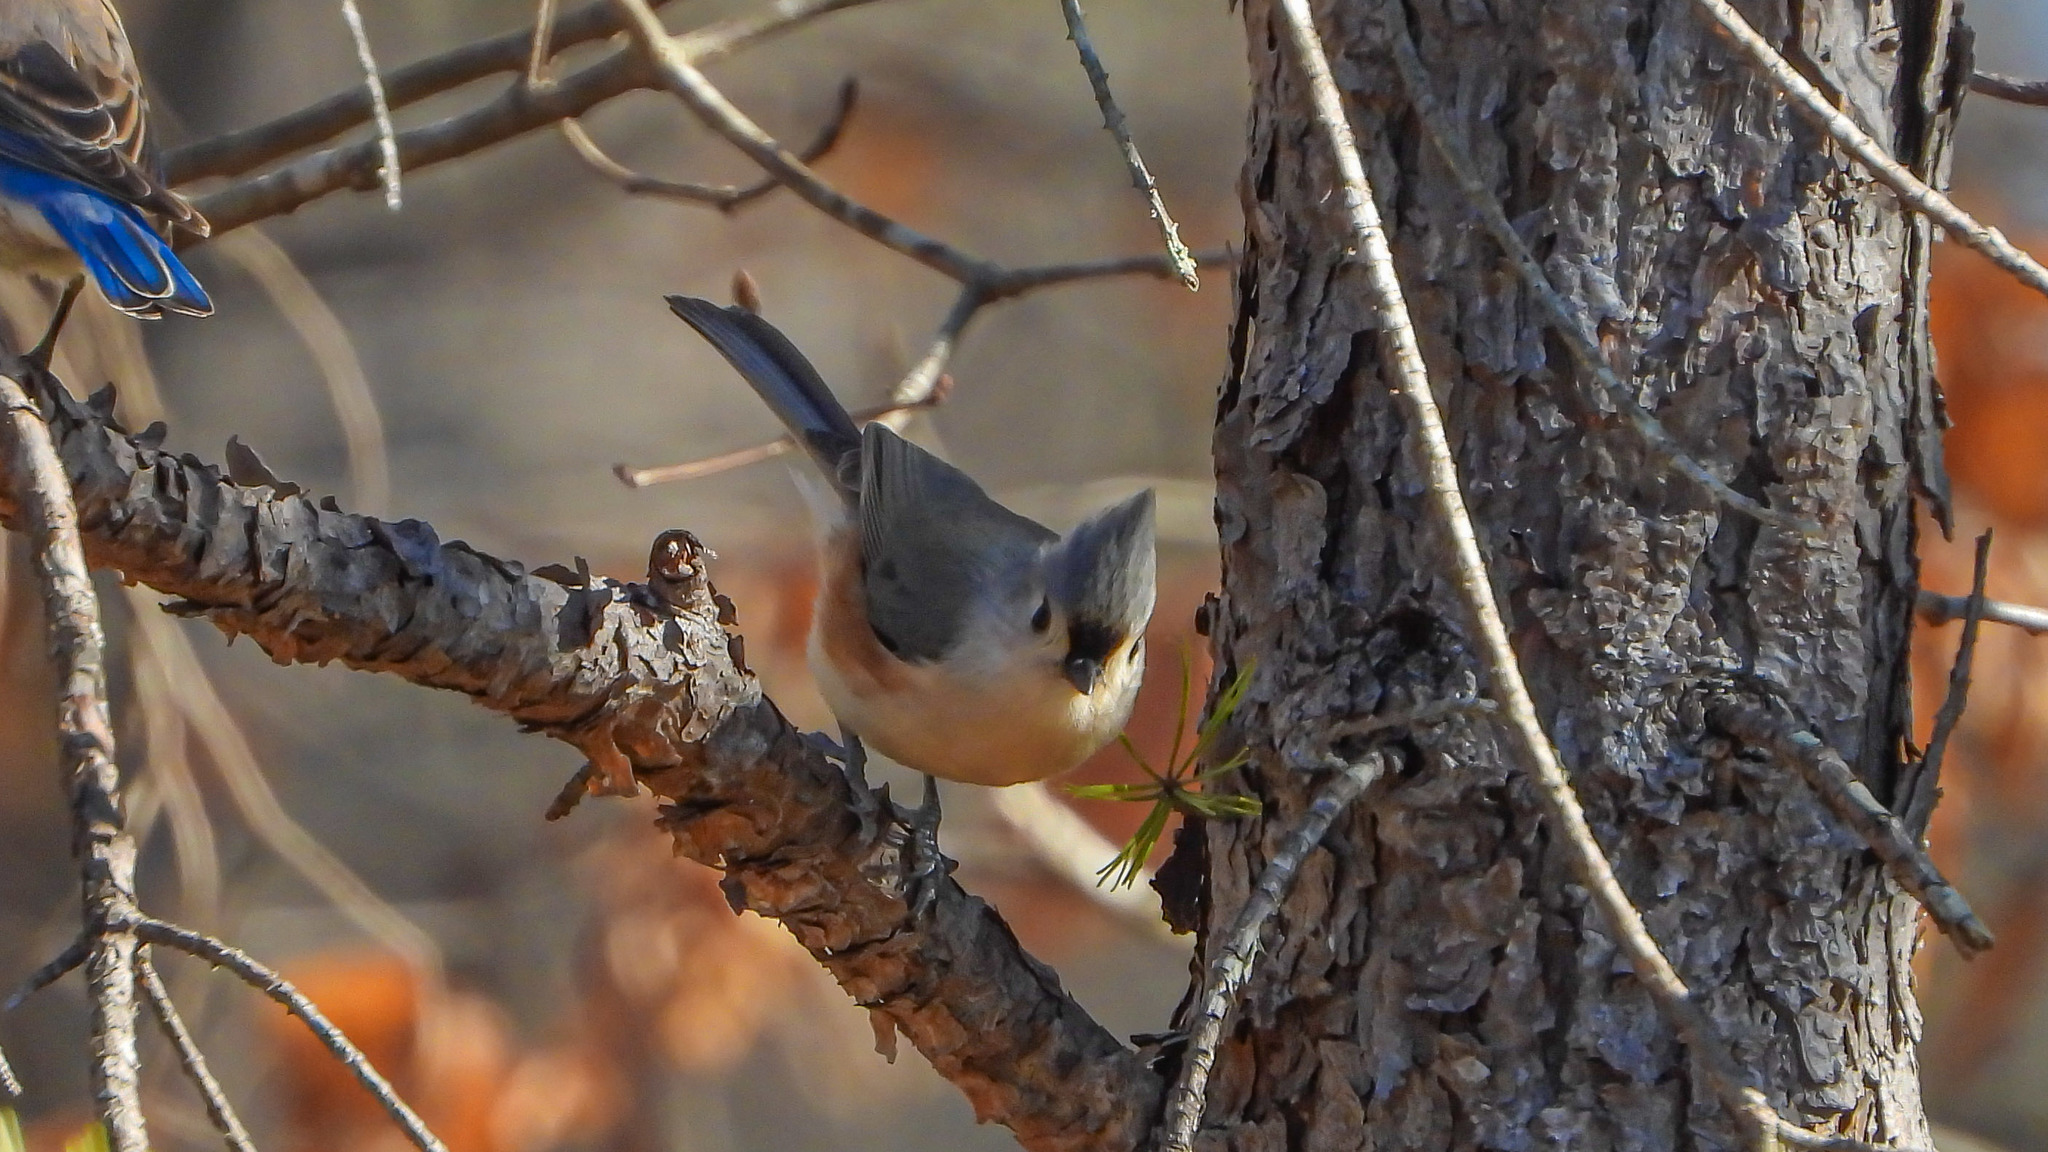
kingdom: Animalia
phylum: Chordata
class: Aves
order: Passeriformes
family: Paridae
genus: Baeolophus
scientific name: Baeolophus bicolor
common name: Tufted titmouse
